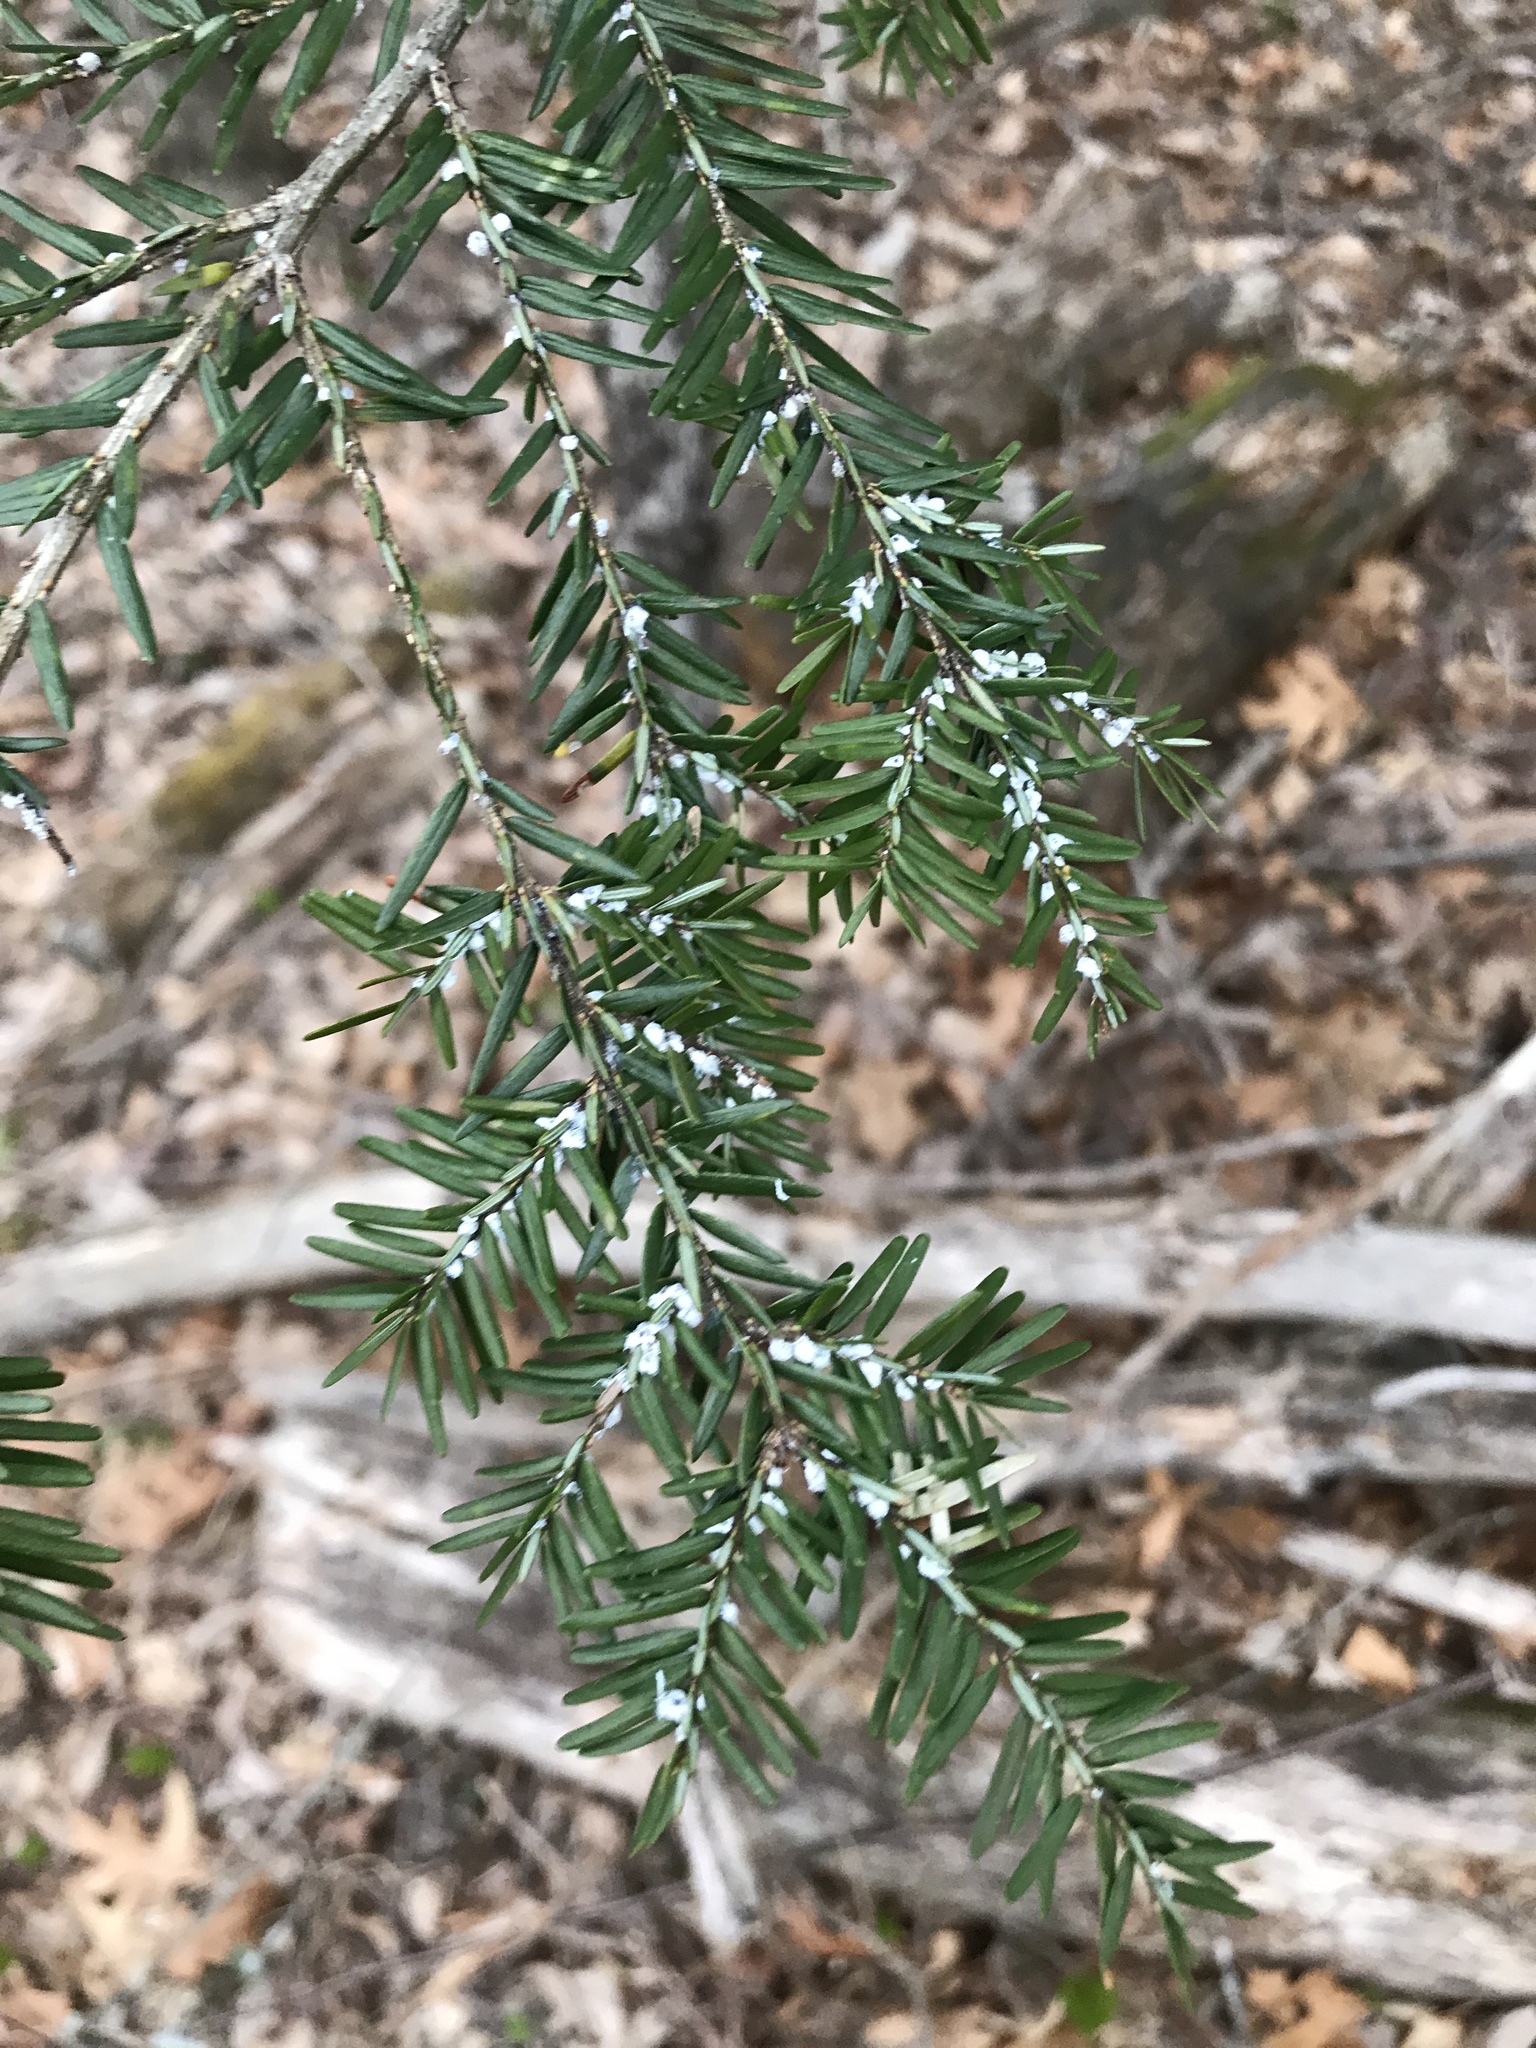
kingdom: Animalia
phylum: Arthropoda
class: Insecta
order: Hemiptera
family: Adelgidae
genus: Adelges
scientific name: Adelges tsugae
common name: Hemlock woolly adelgid
